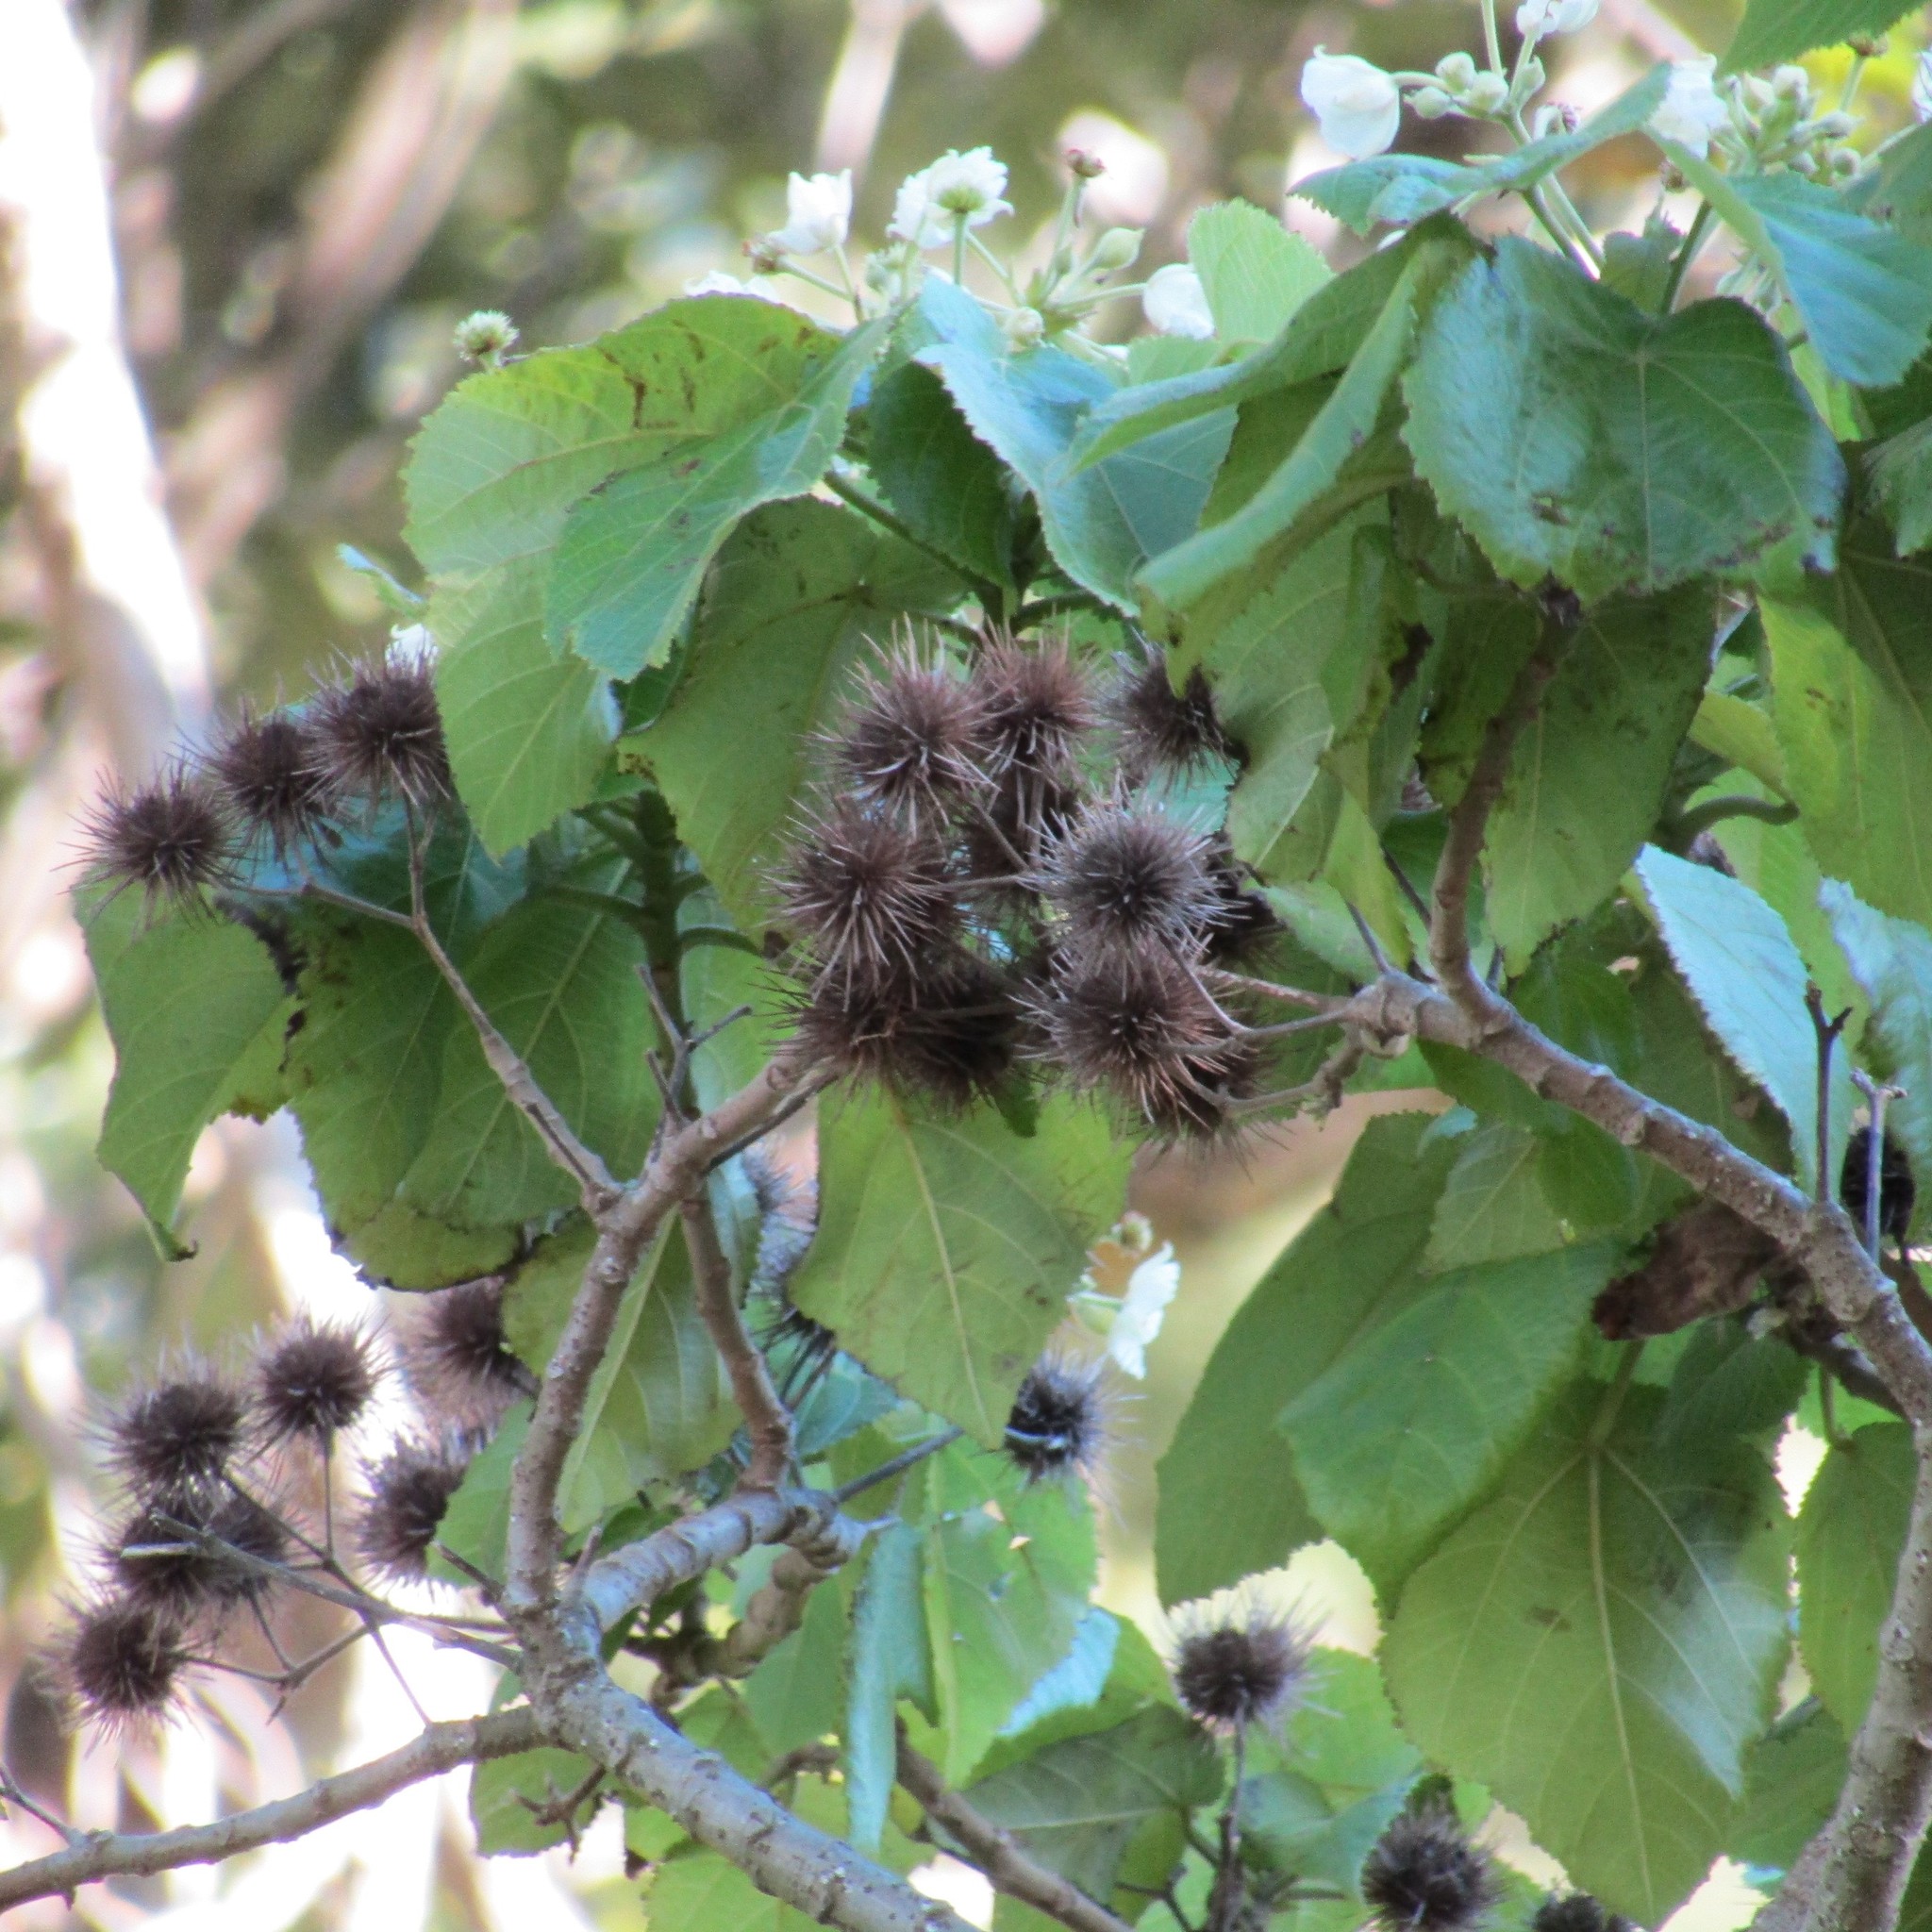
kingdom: Plantae
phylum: Tracheophyta
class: Magnoliopsida
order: Malvales
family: Malvaceae
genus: Entelea
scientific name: Entelea arborescens
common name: New zealand-mulberry
